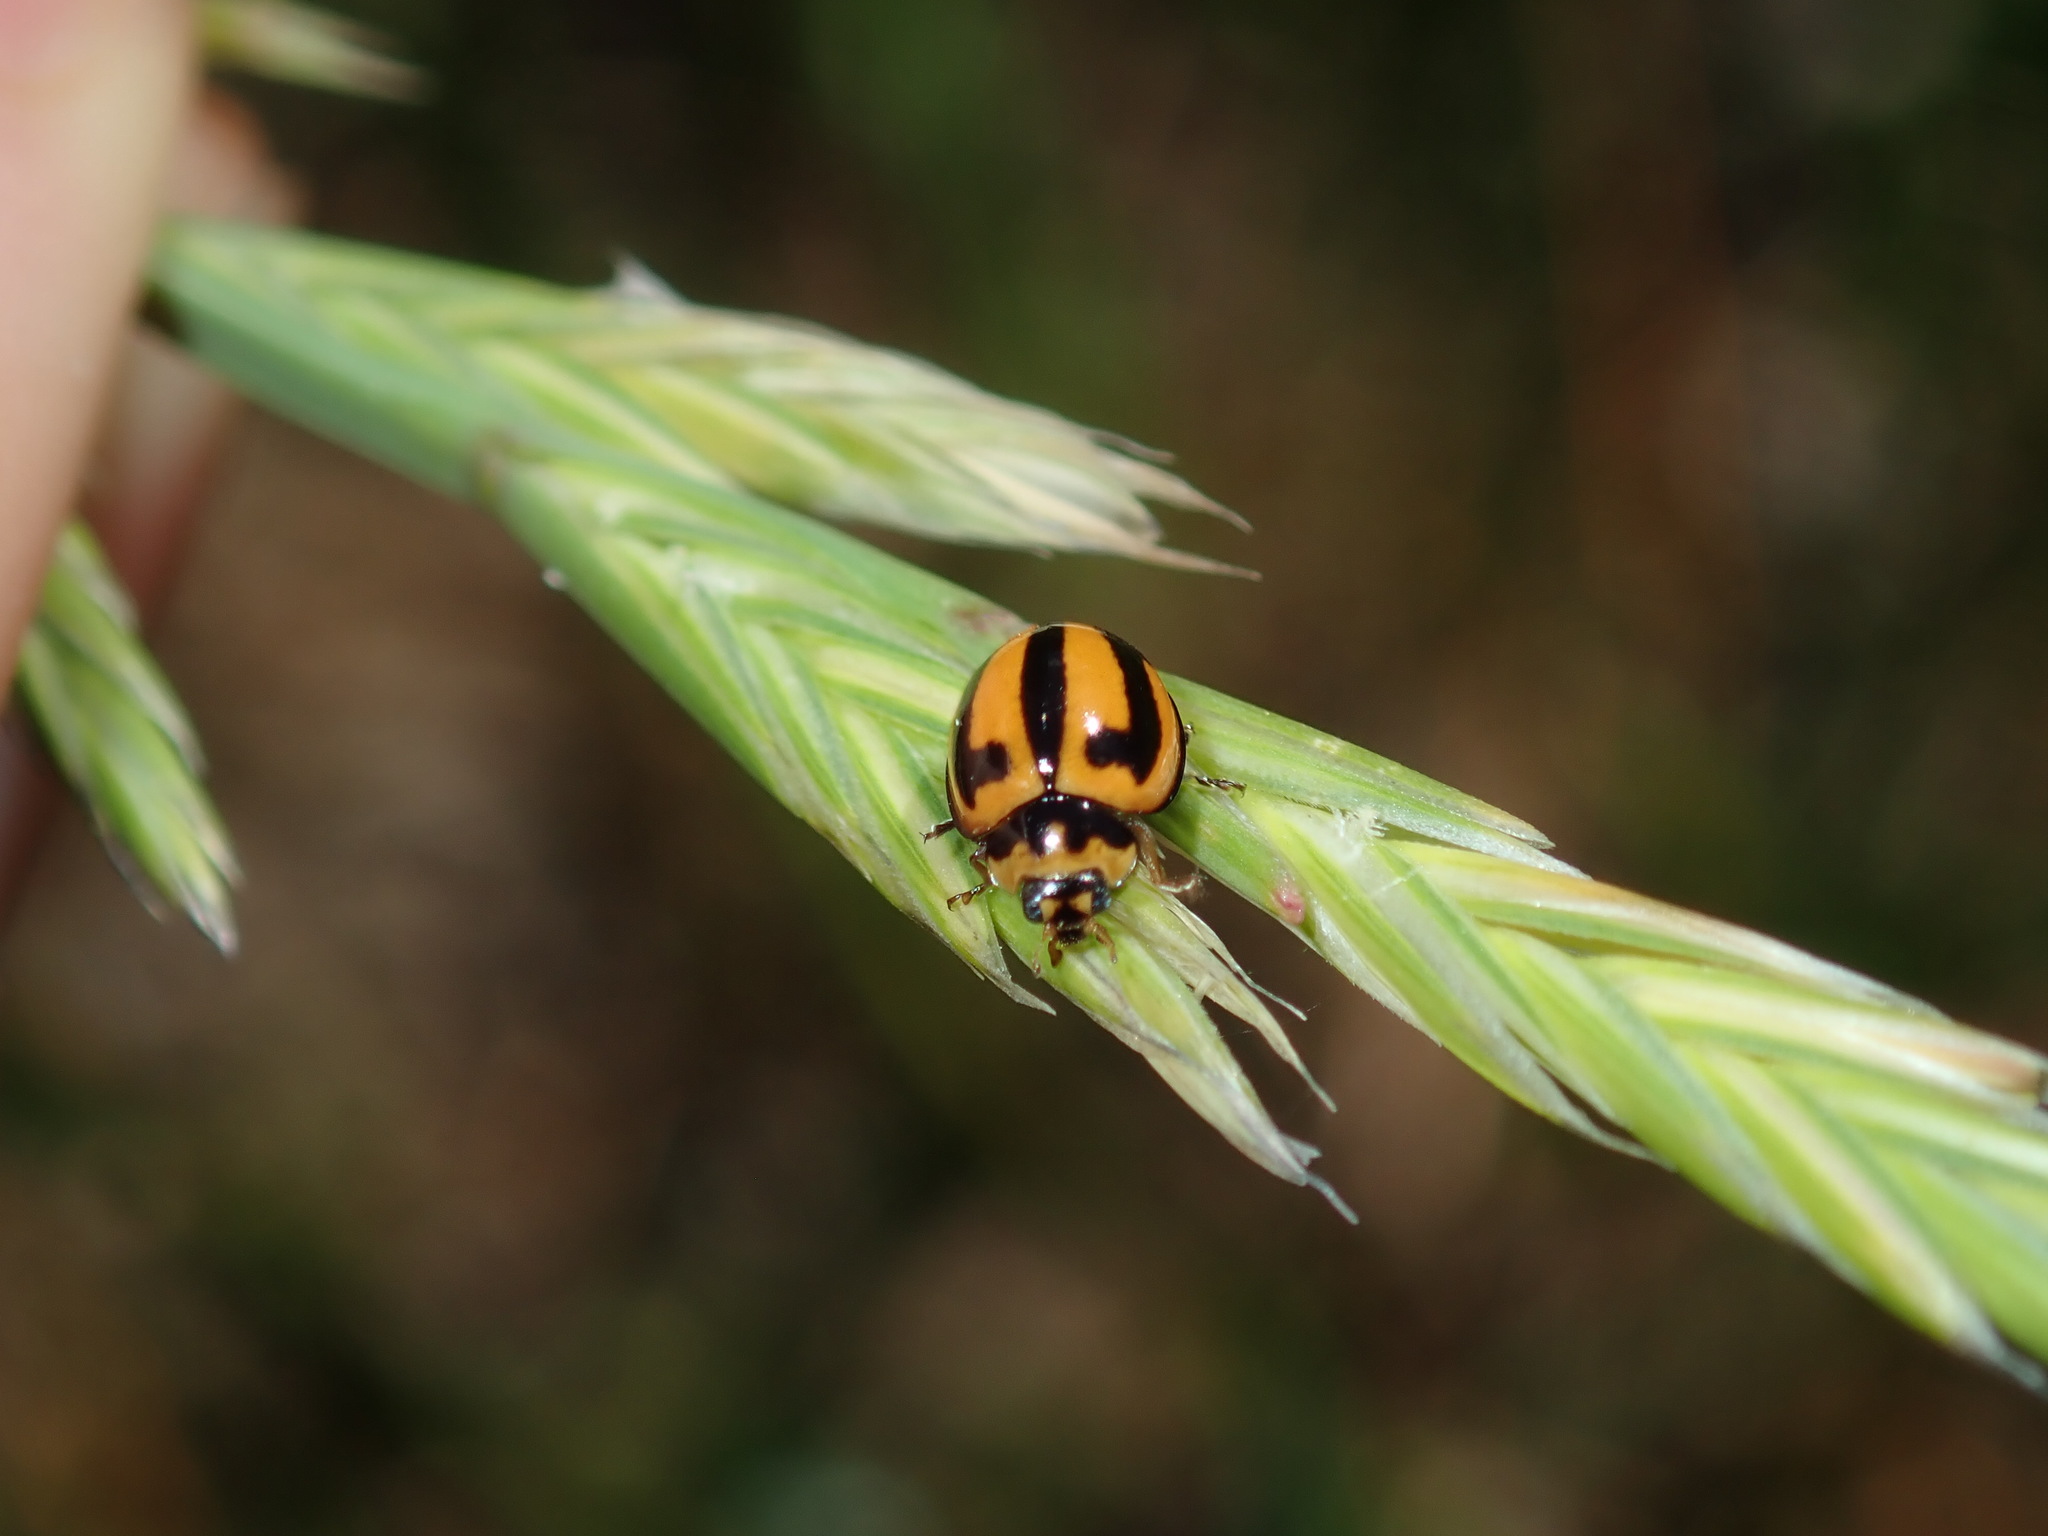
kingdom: Animalia
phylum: Arthropoda
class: Insecta
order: Coleoptera
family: Coccinellidae
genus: Micraspis
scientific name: Micraspis frenata
